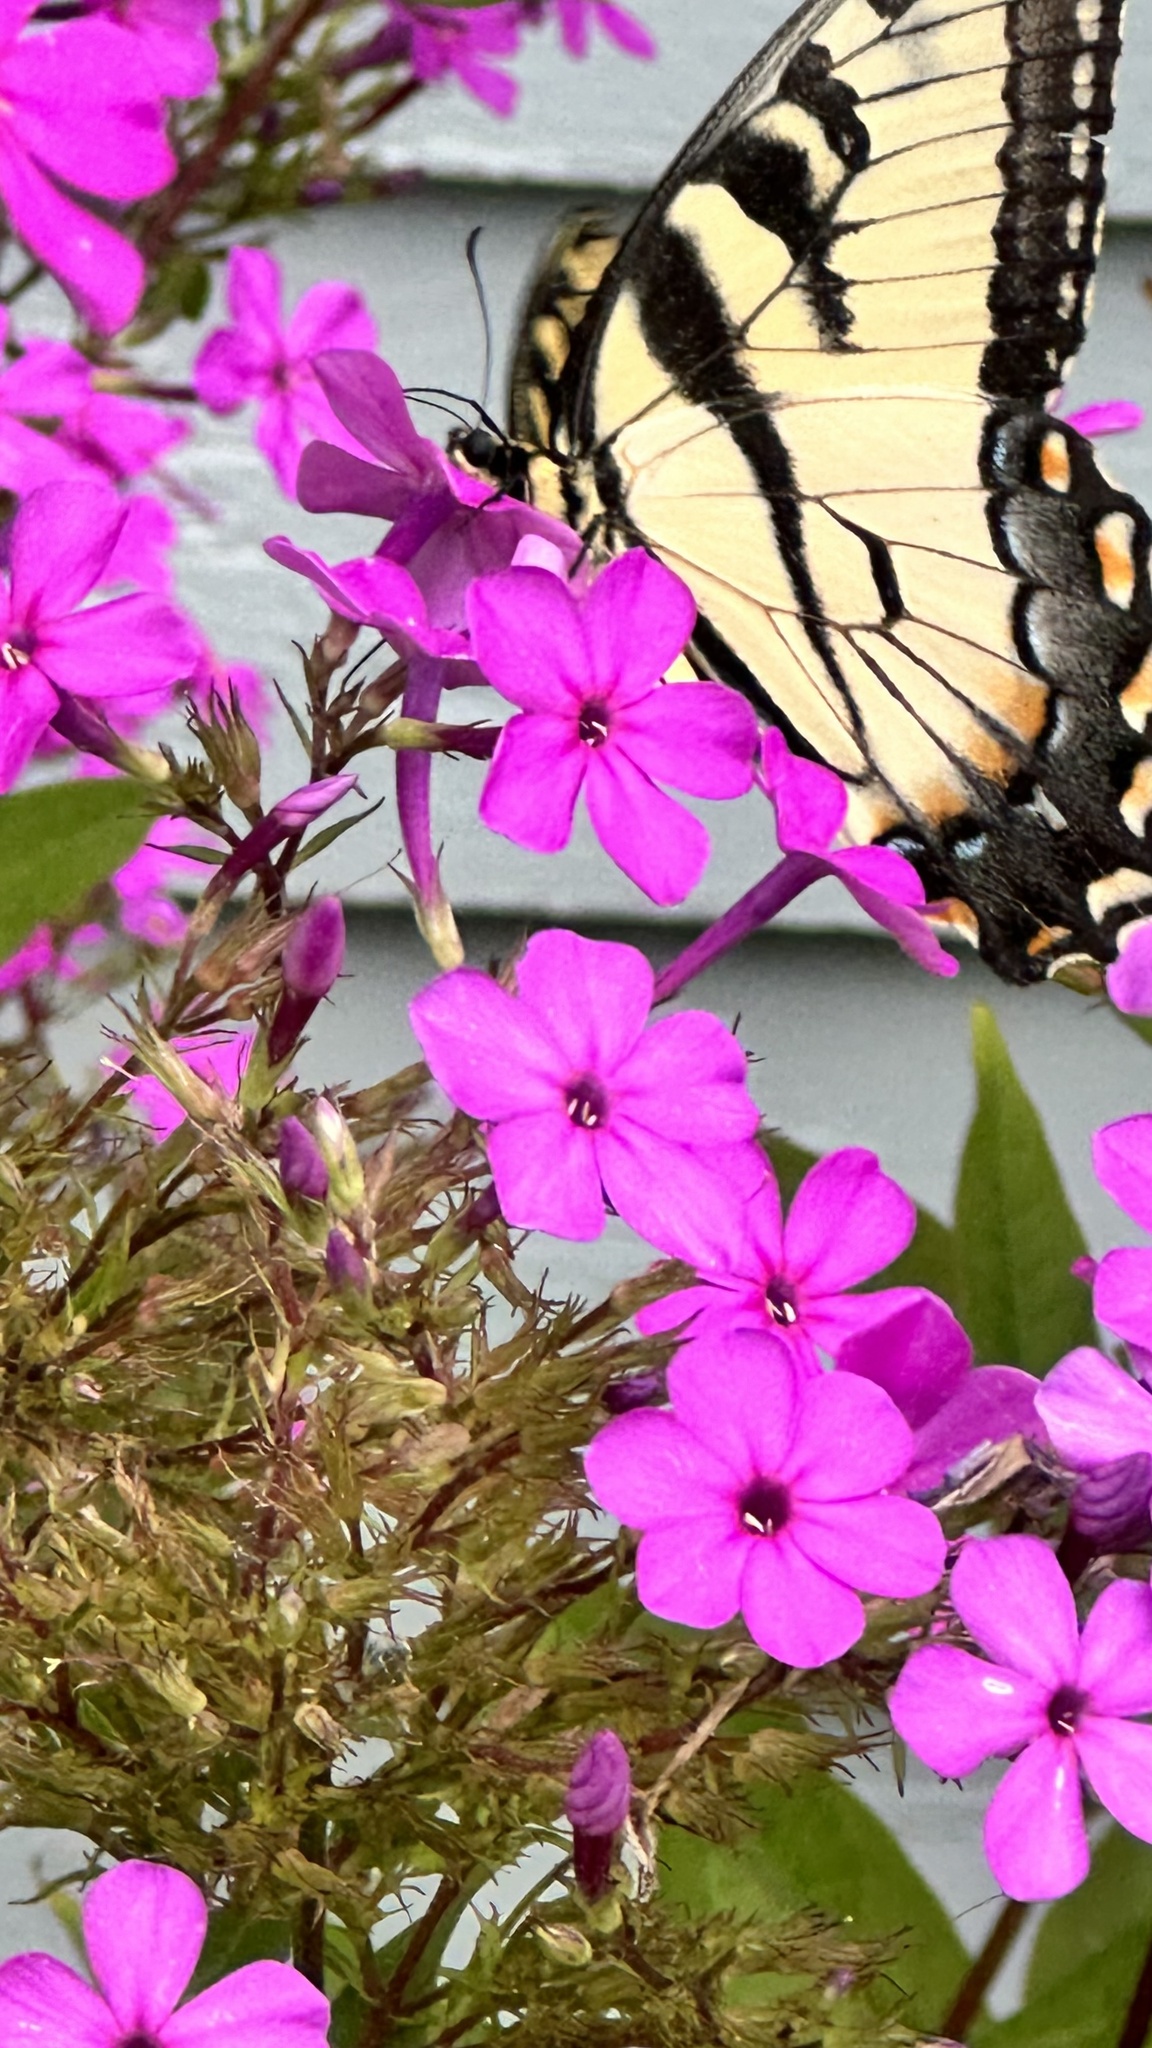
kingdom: Animalia
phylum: Arthropoda
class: Insecta
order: Lepidoptera
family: Papilionidae
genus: Papilio
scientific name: Papilio glaucus
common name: Tiger swallowtail
